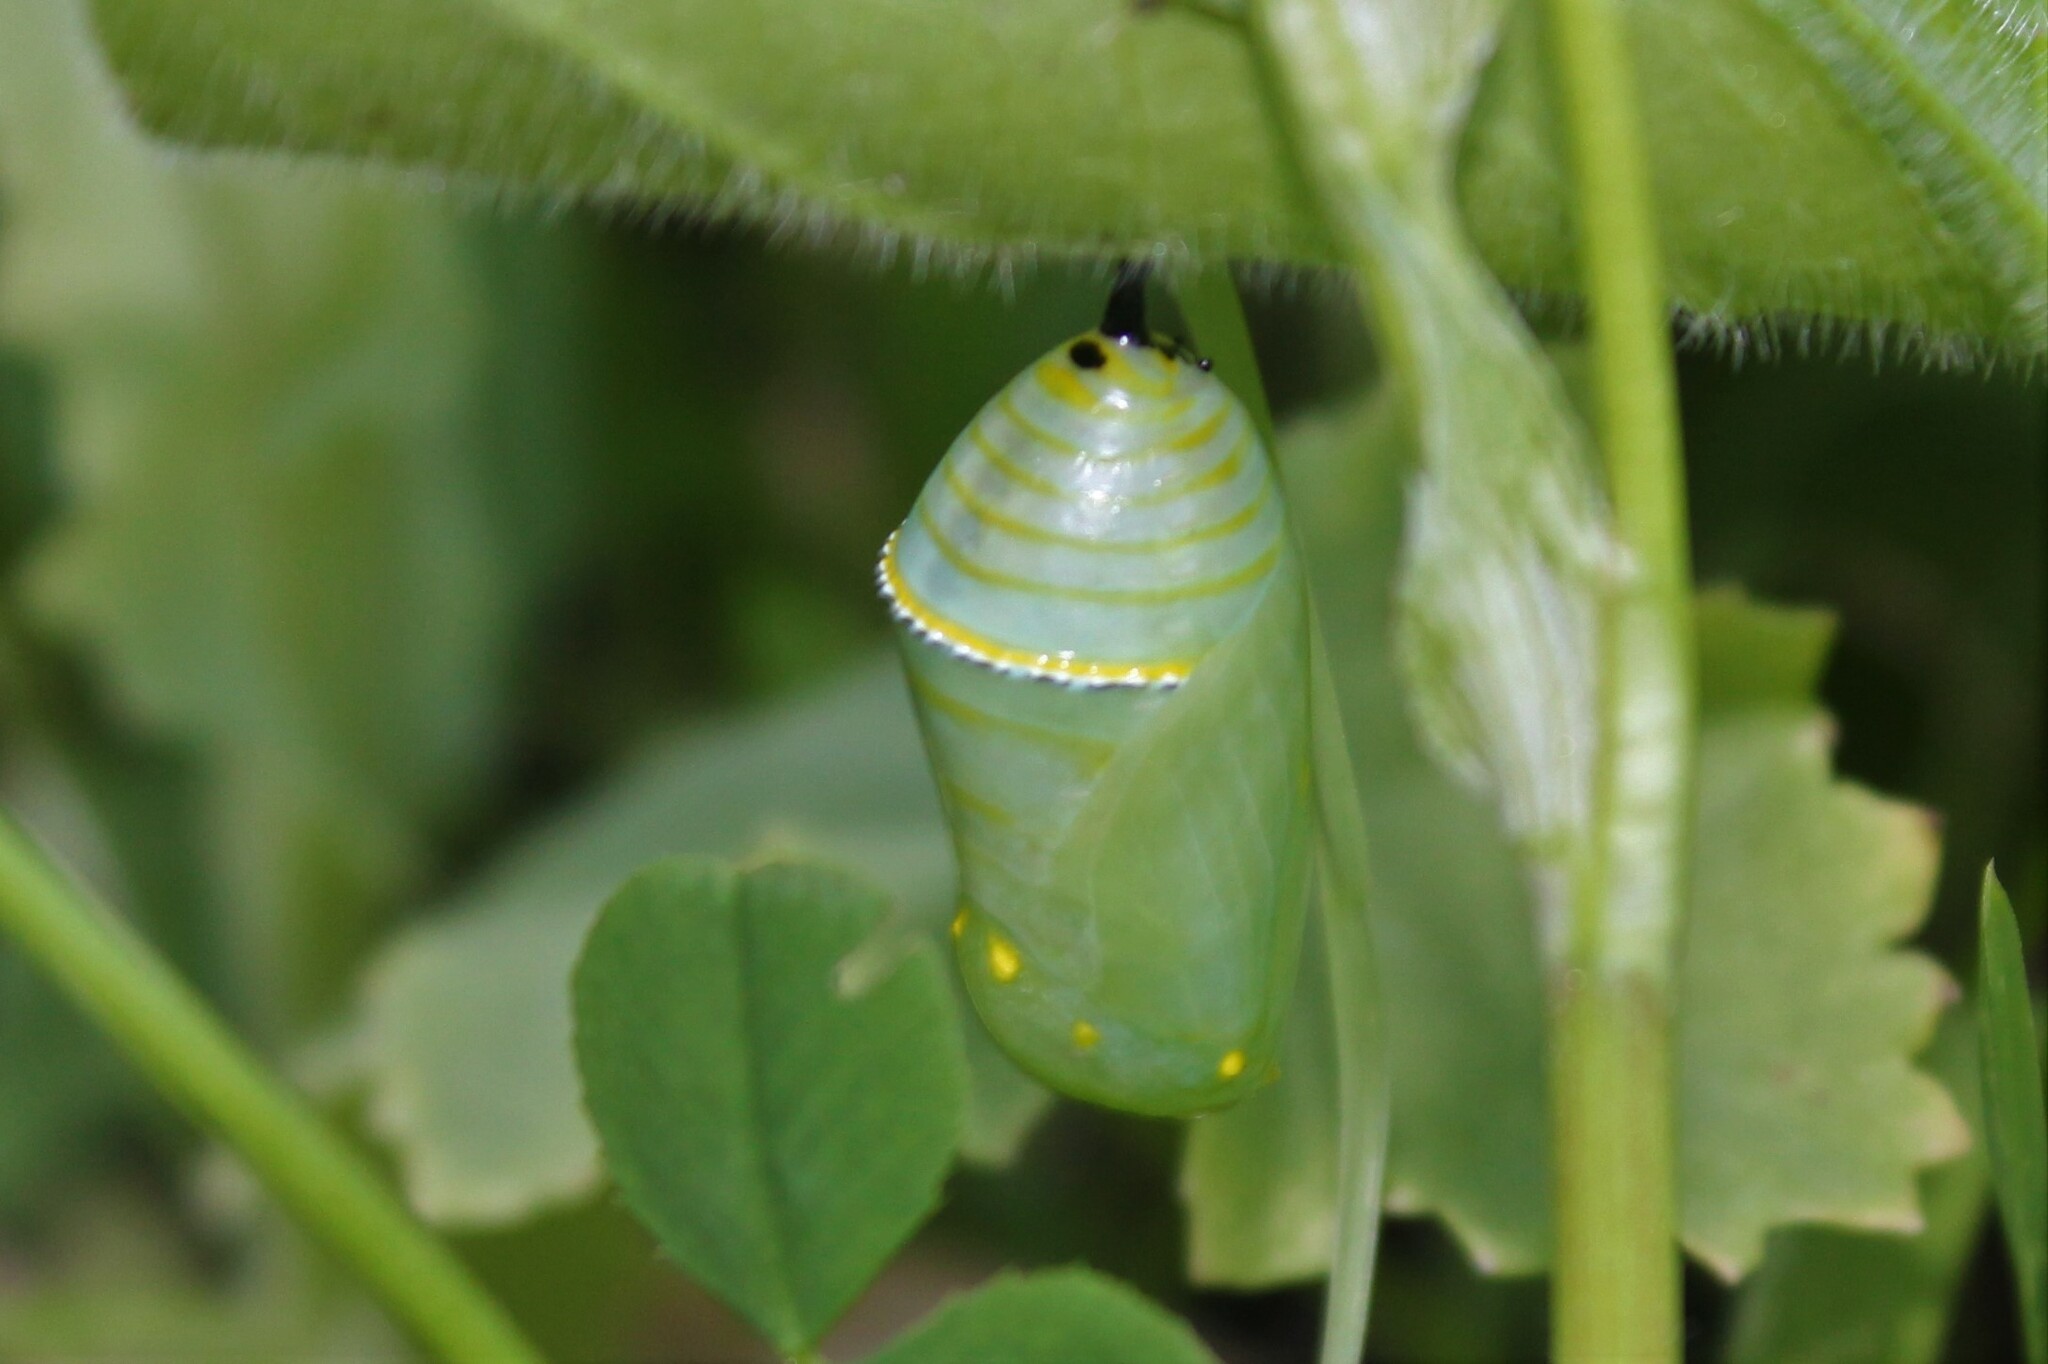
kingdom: Animalia
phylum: Arthropoda
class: Insecta
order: Lepidoptera
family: Nymphalidae
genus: Danaus
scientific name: Danaus plexippus
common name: Monarch
